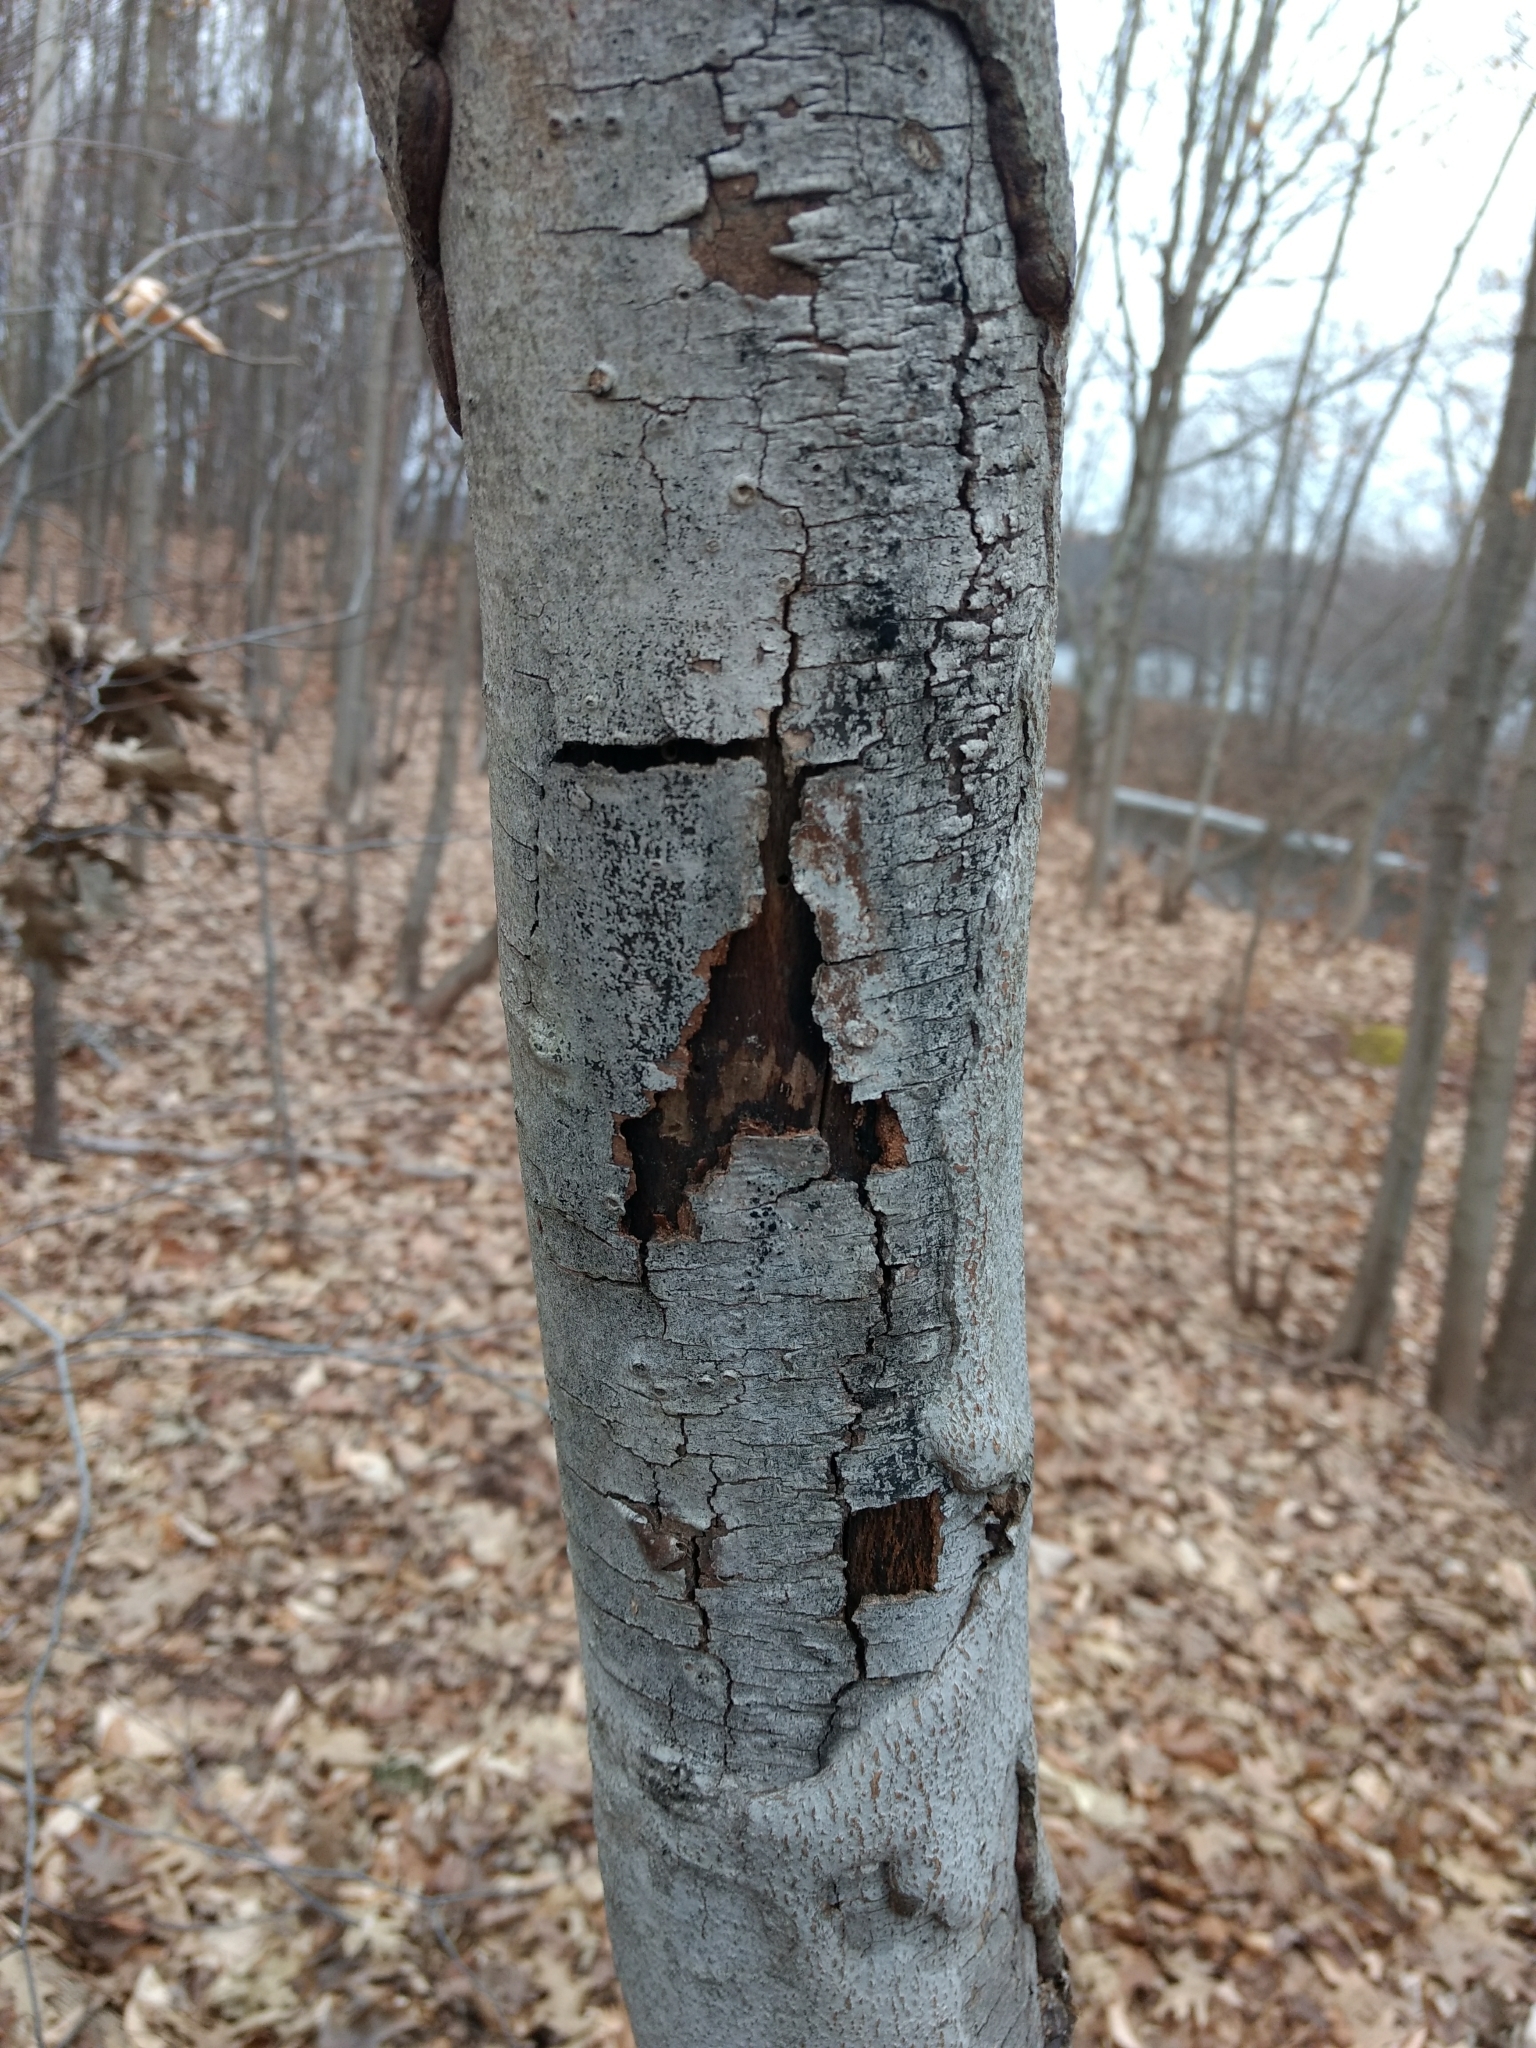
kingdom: Plantae
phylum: Tracheophyta
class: Magnoliopsida
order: Fagales
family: Fagaceae
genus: Fagus
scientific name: Fagus grandifolia
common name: American beech
